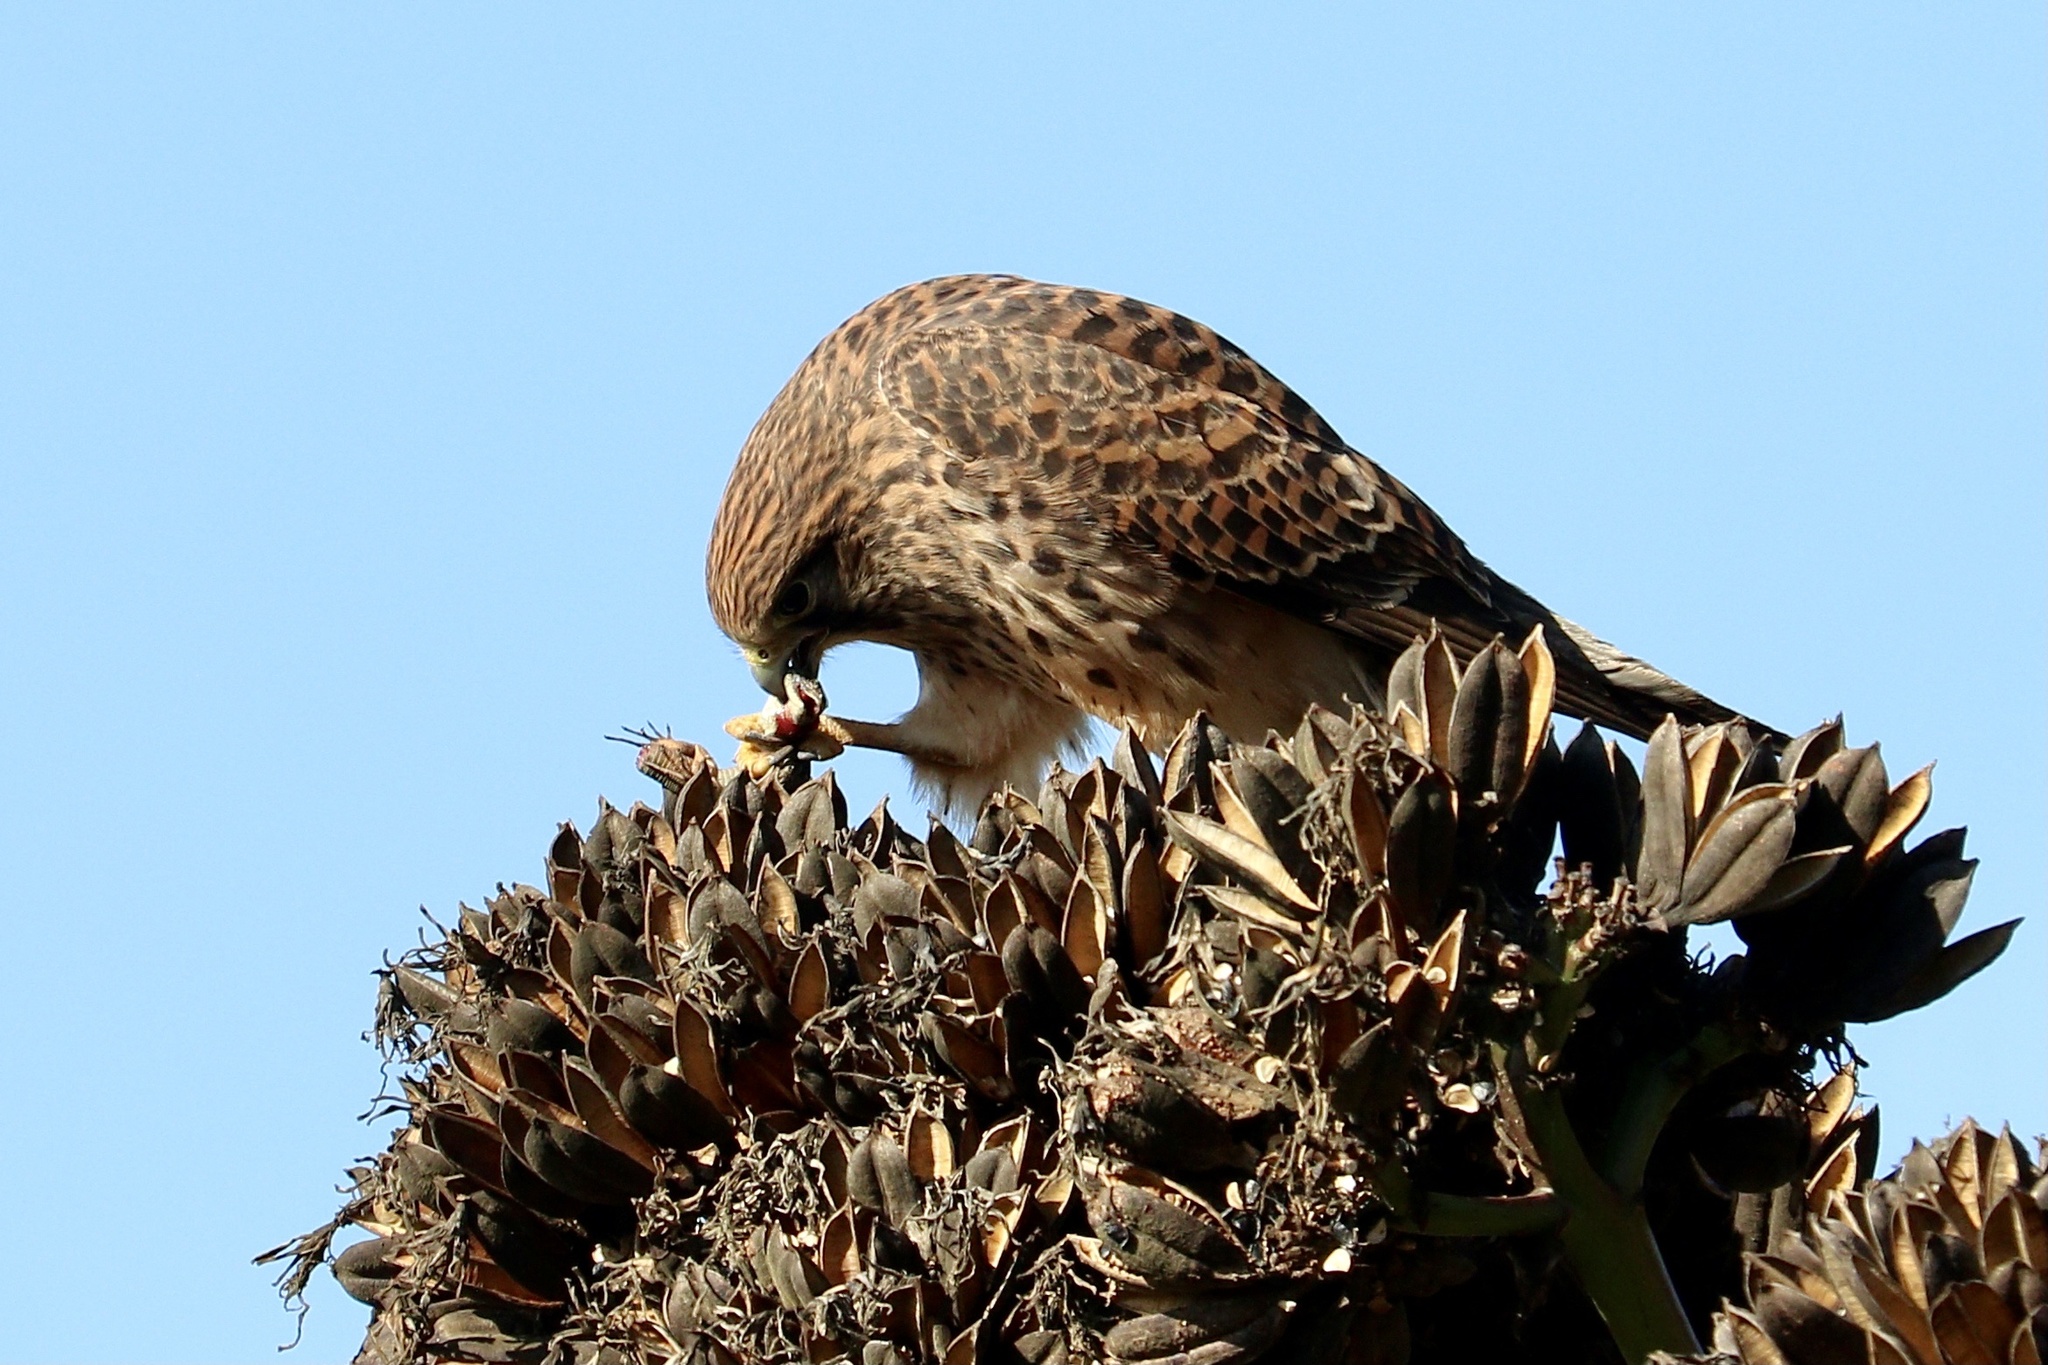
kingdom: Animalia
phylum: Chordata
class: Aves
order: Falconiformes
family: Falconidae
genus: Falco
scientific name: Falco tinnunculus
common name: Common kestrel
